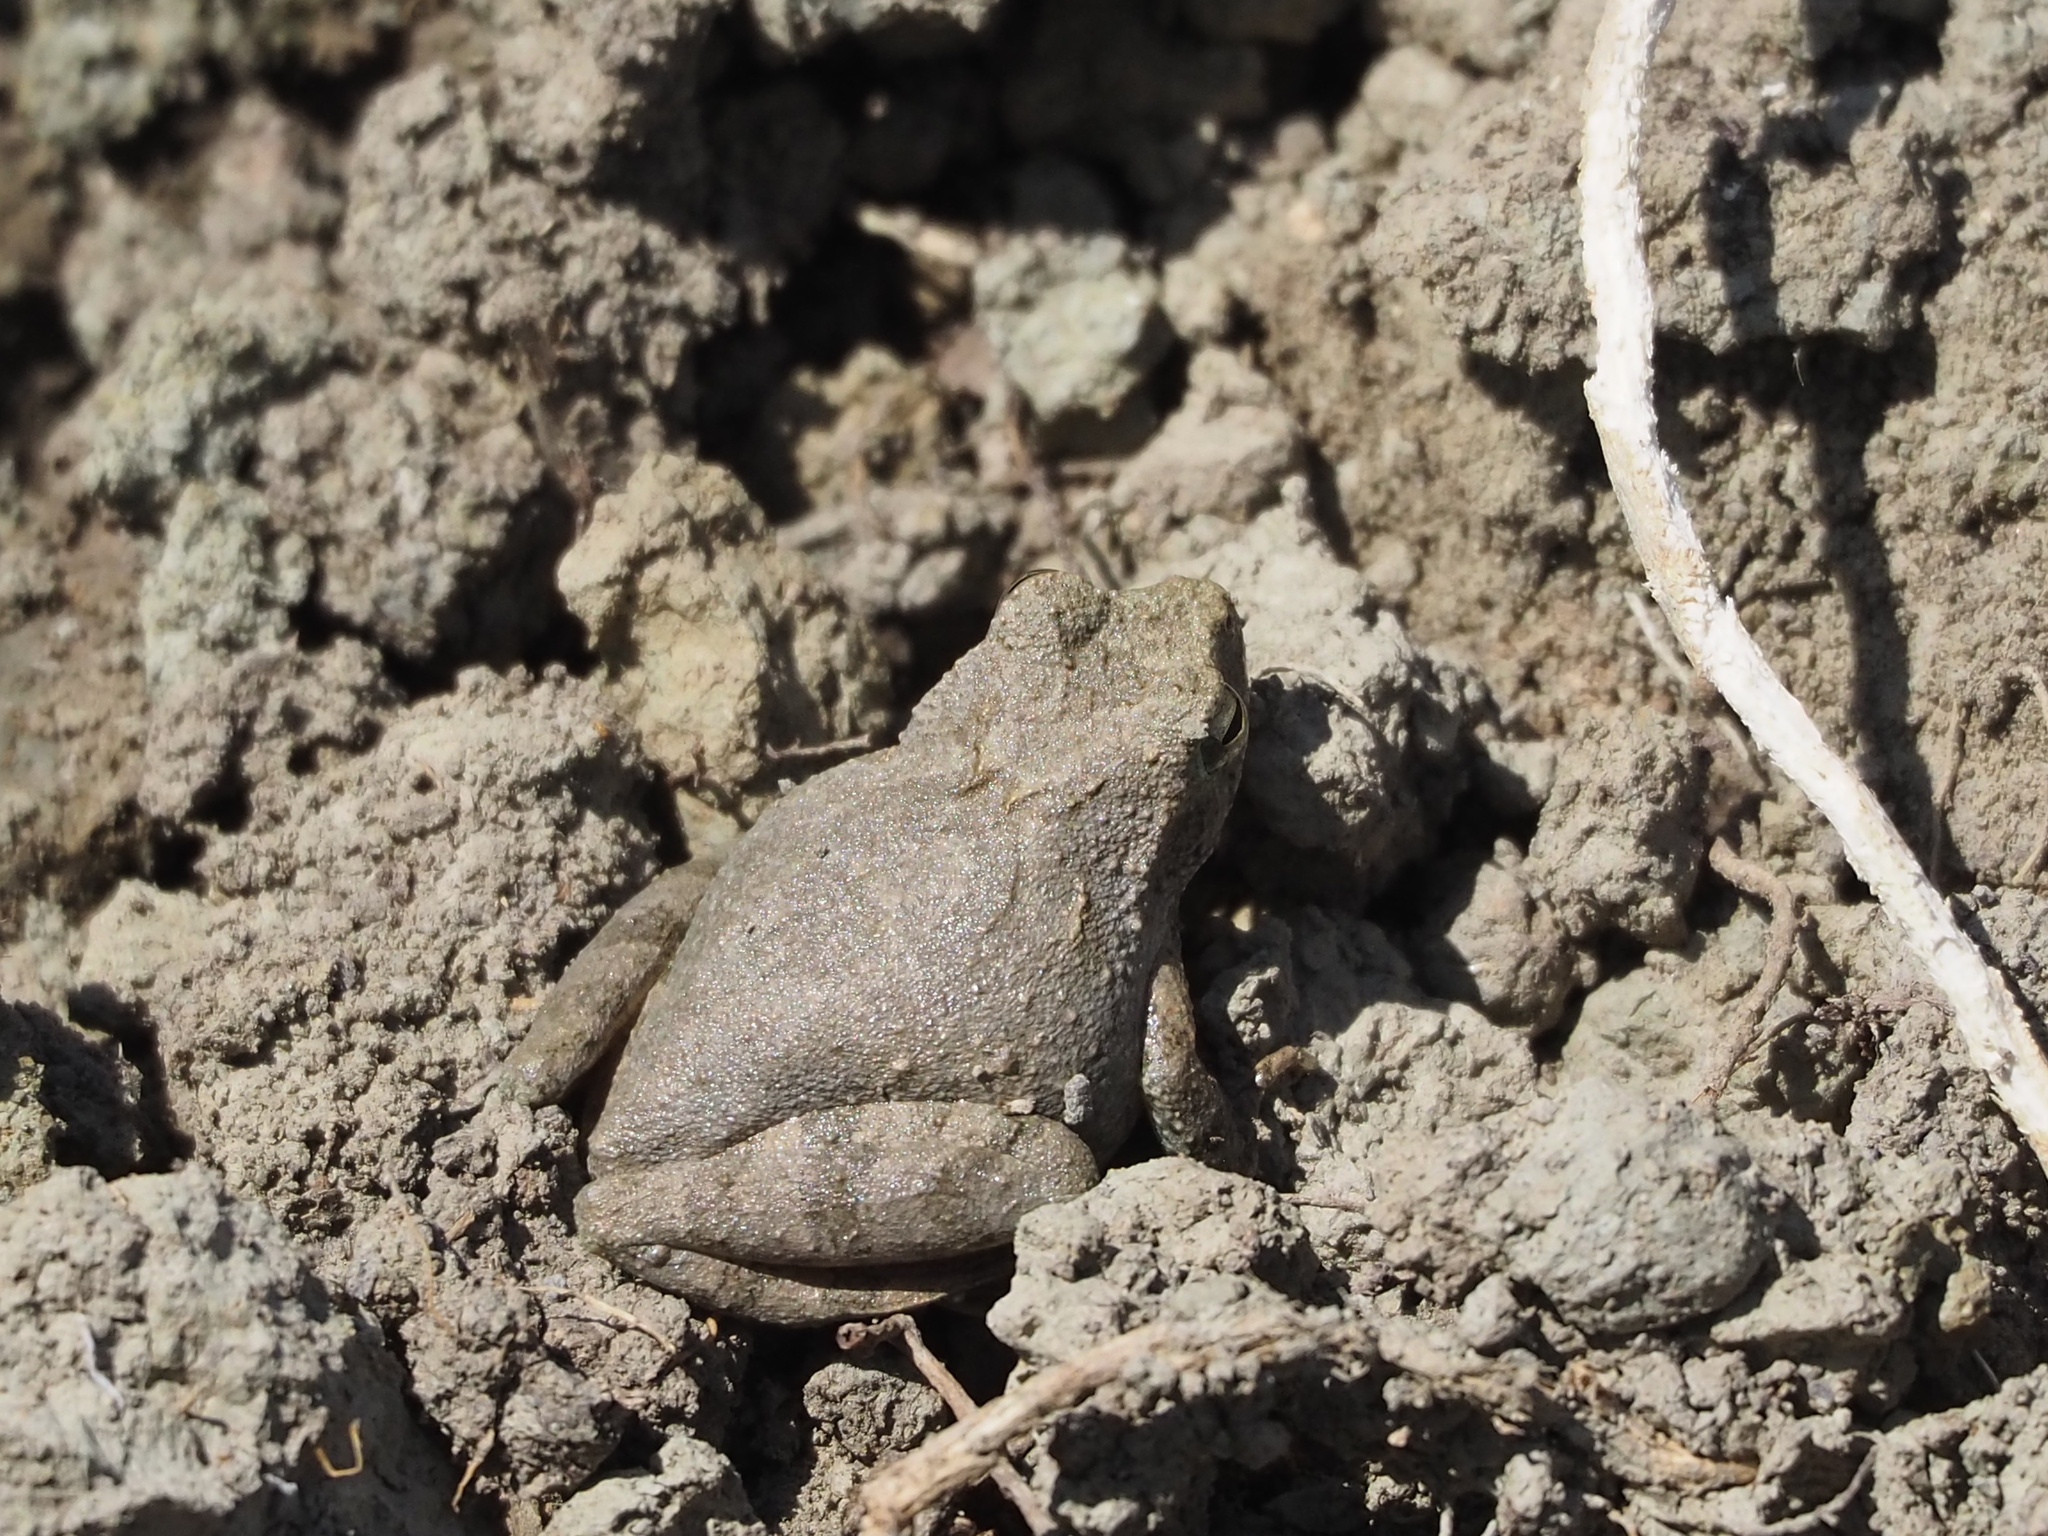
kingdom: Animalia
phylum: Chordata
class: Amphibia
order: Anura
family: Rhacophoridae
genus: Buergeria
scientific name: Buergeria otai
